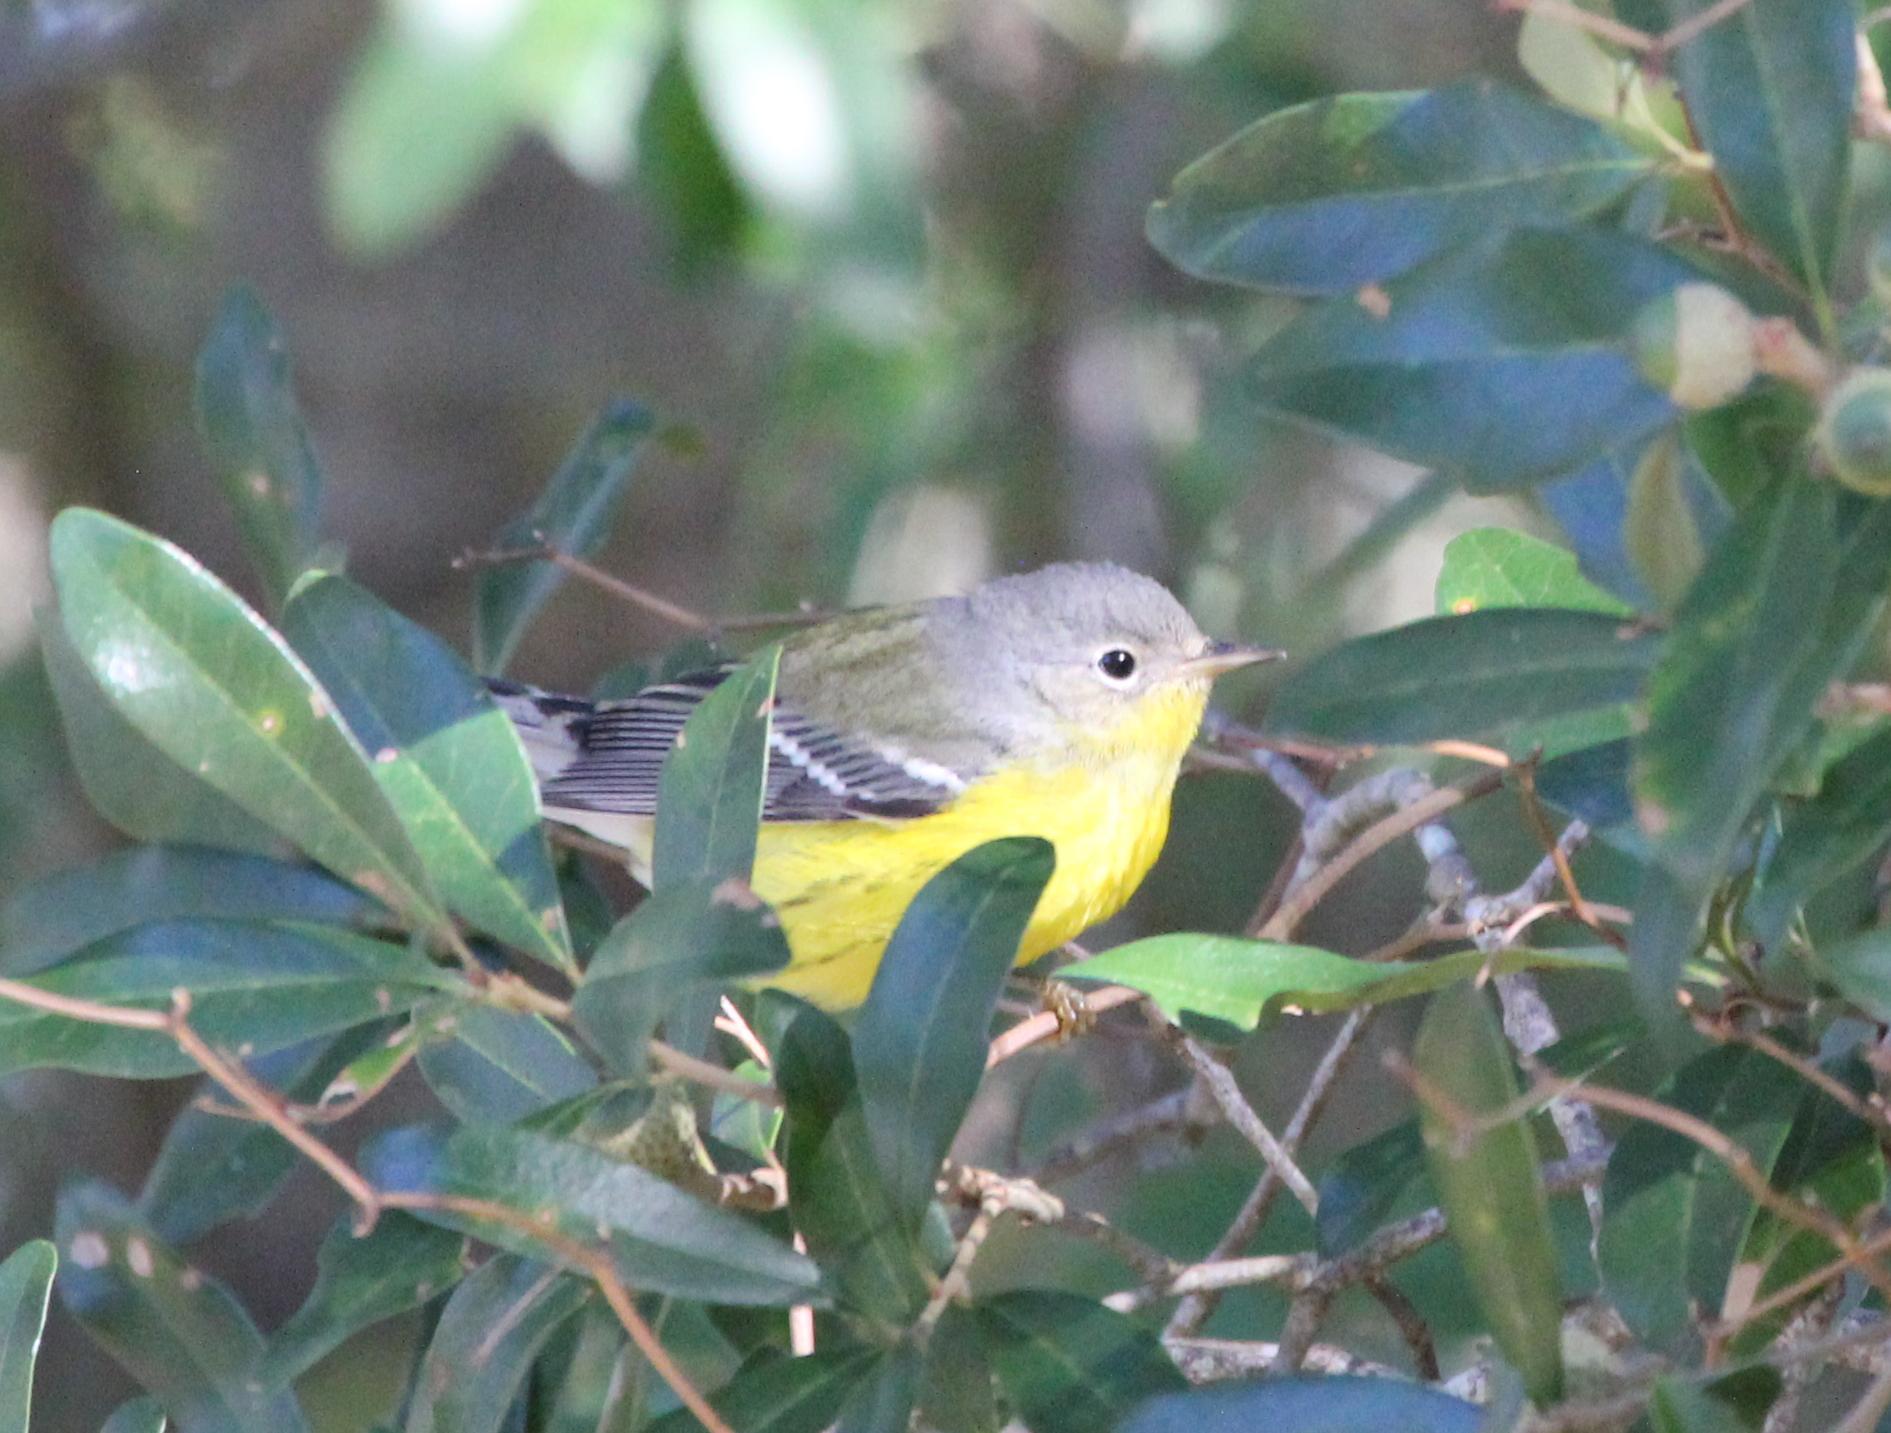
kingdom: Animalia
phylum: Chordata
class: Aves
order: Passeriformes
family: Parulidae
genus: Setophaga
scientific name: Setophaga magnolia
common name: Magnolia warbler
